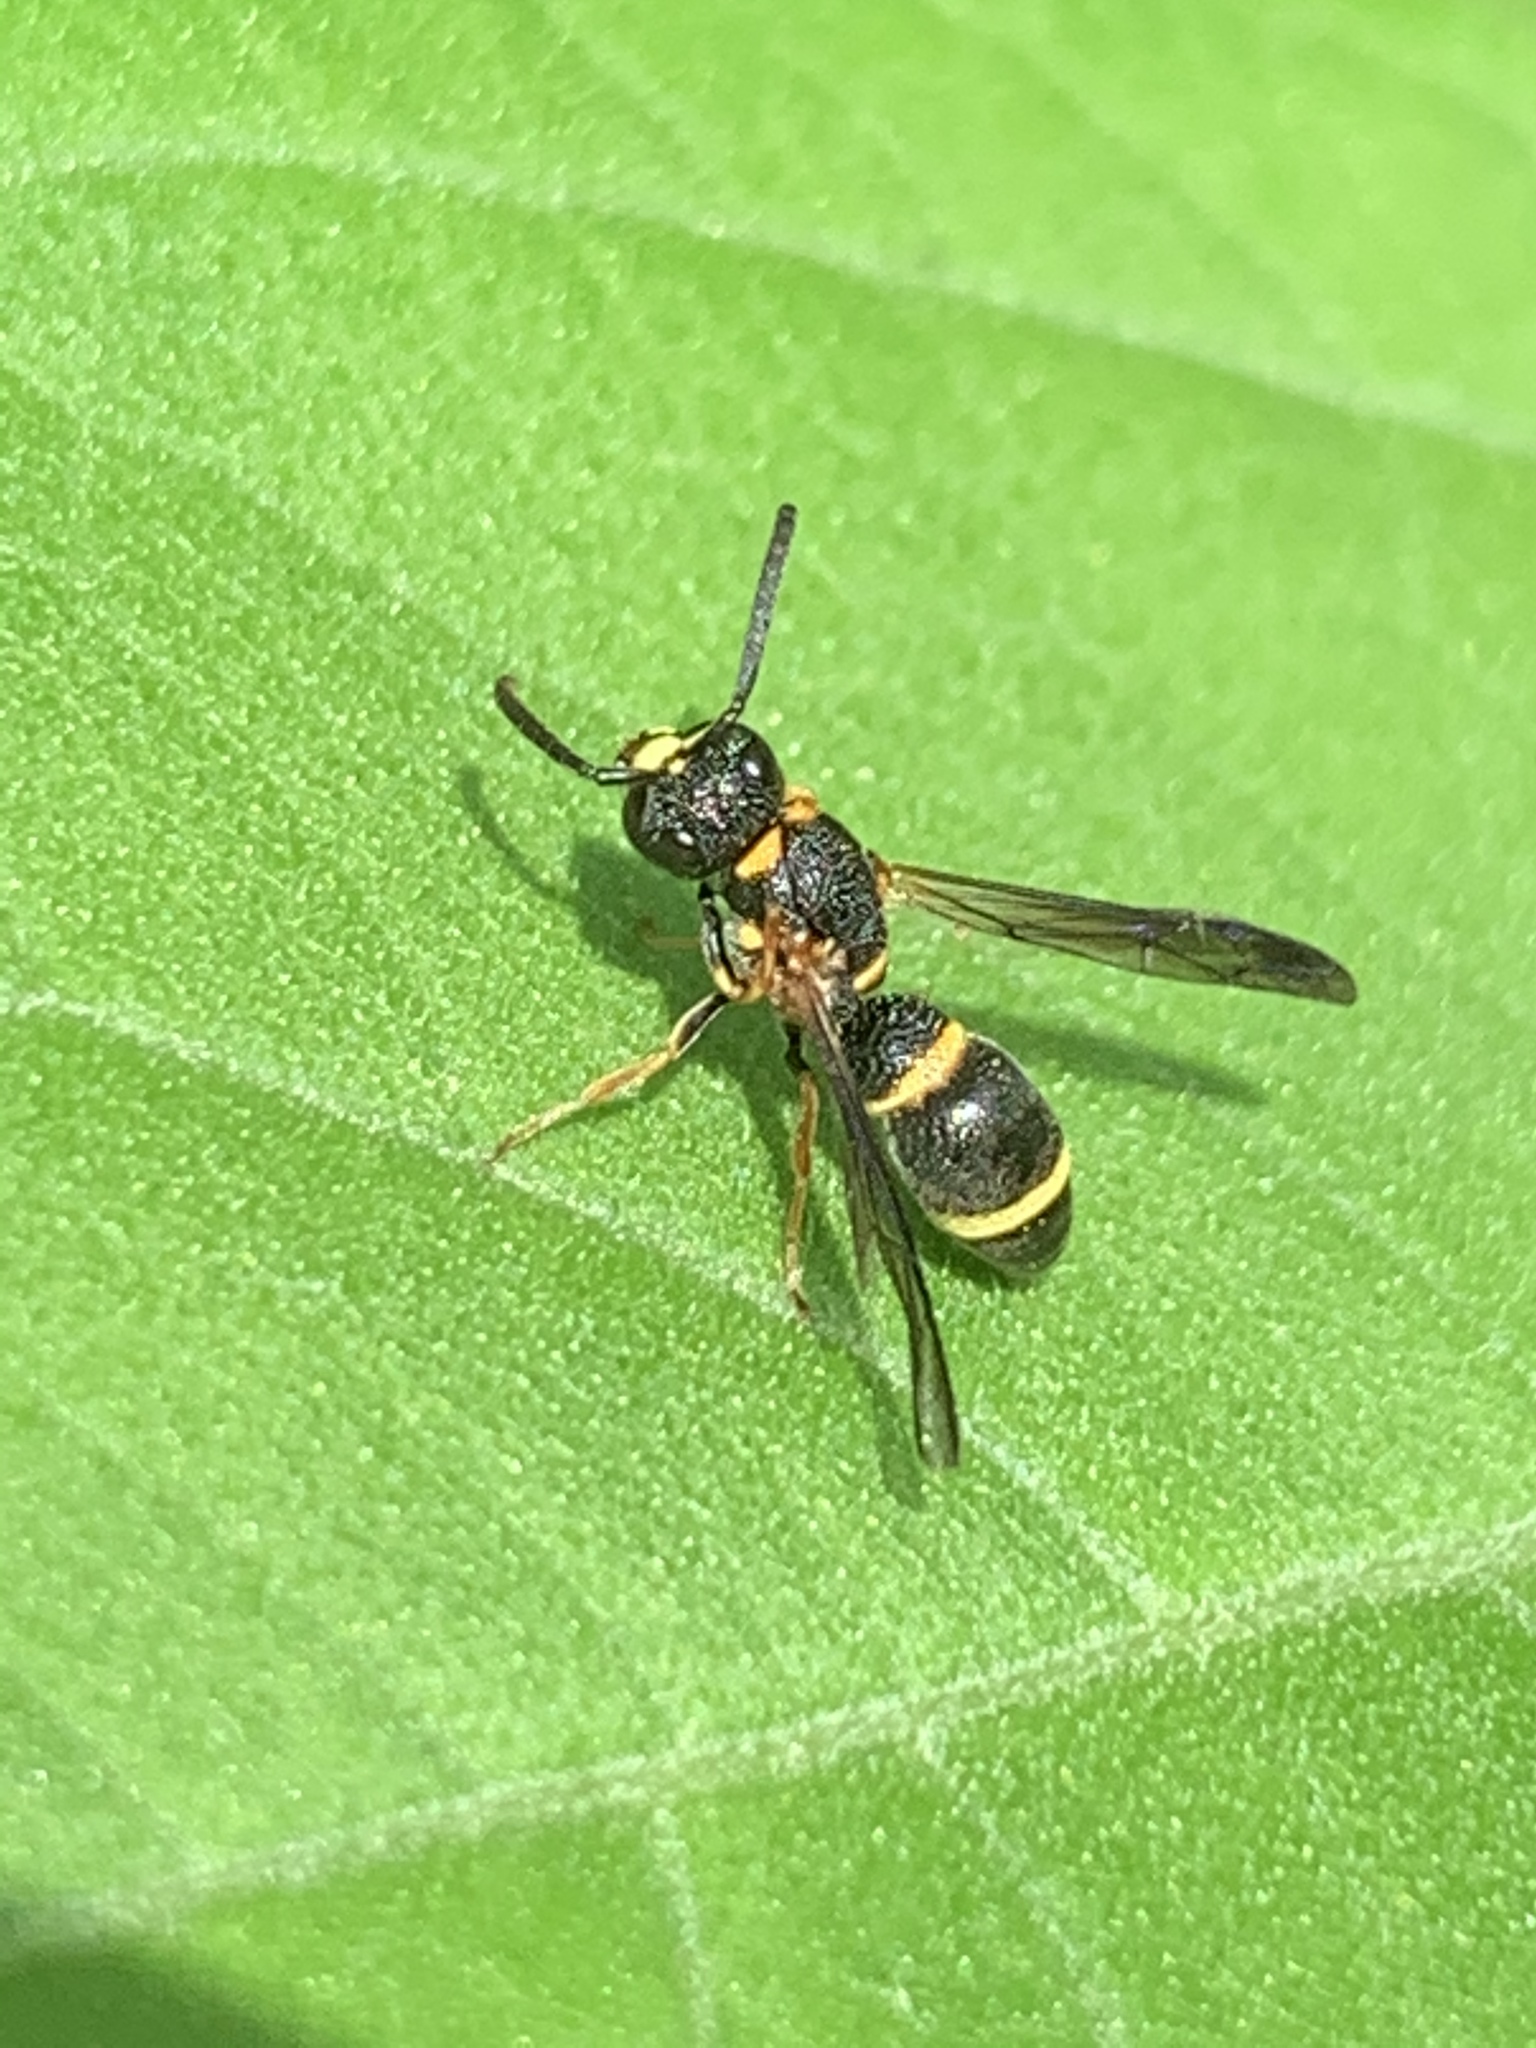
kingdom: Animalia
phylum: Arthropoda
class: Insecta
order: Hymenoptera
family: Eumenidae
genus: Parancistrocerus
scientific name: Parancistrocerus perennis
